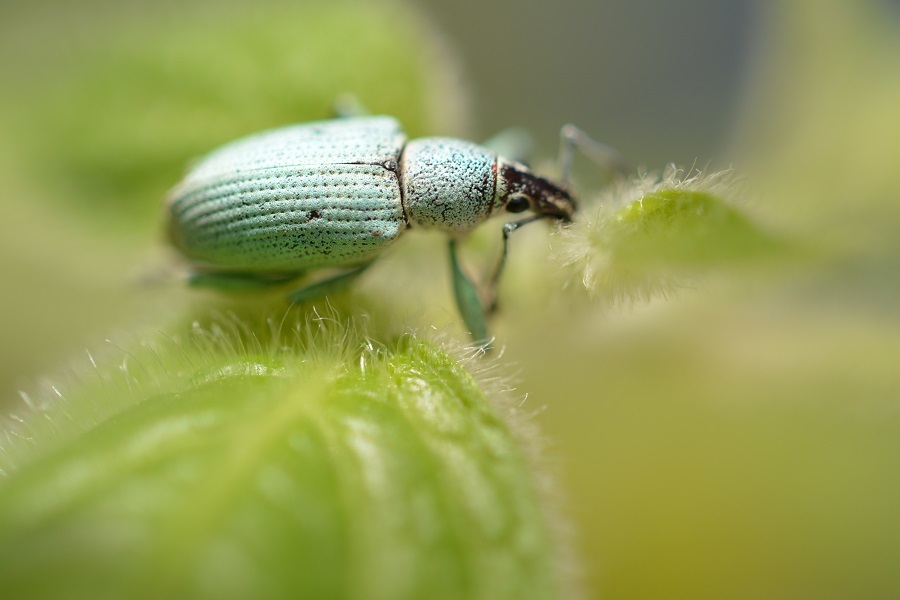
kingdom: Animalia
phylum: Arthropoda
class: Insecta
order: Coleoptera
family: Curculionidae
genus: Exophthalmus
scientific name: Exophthalmus agrestis
